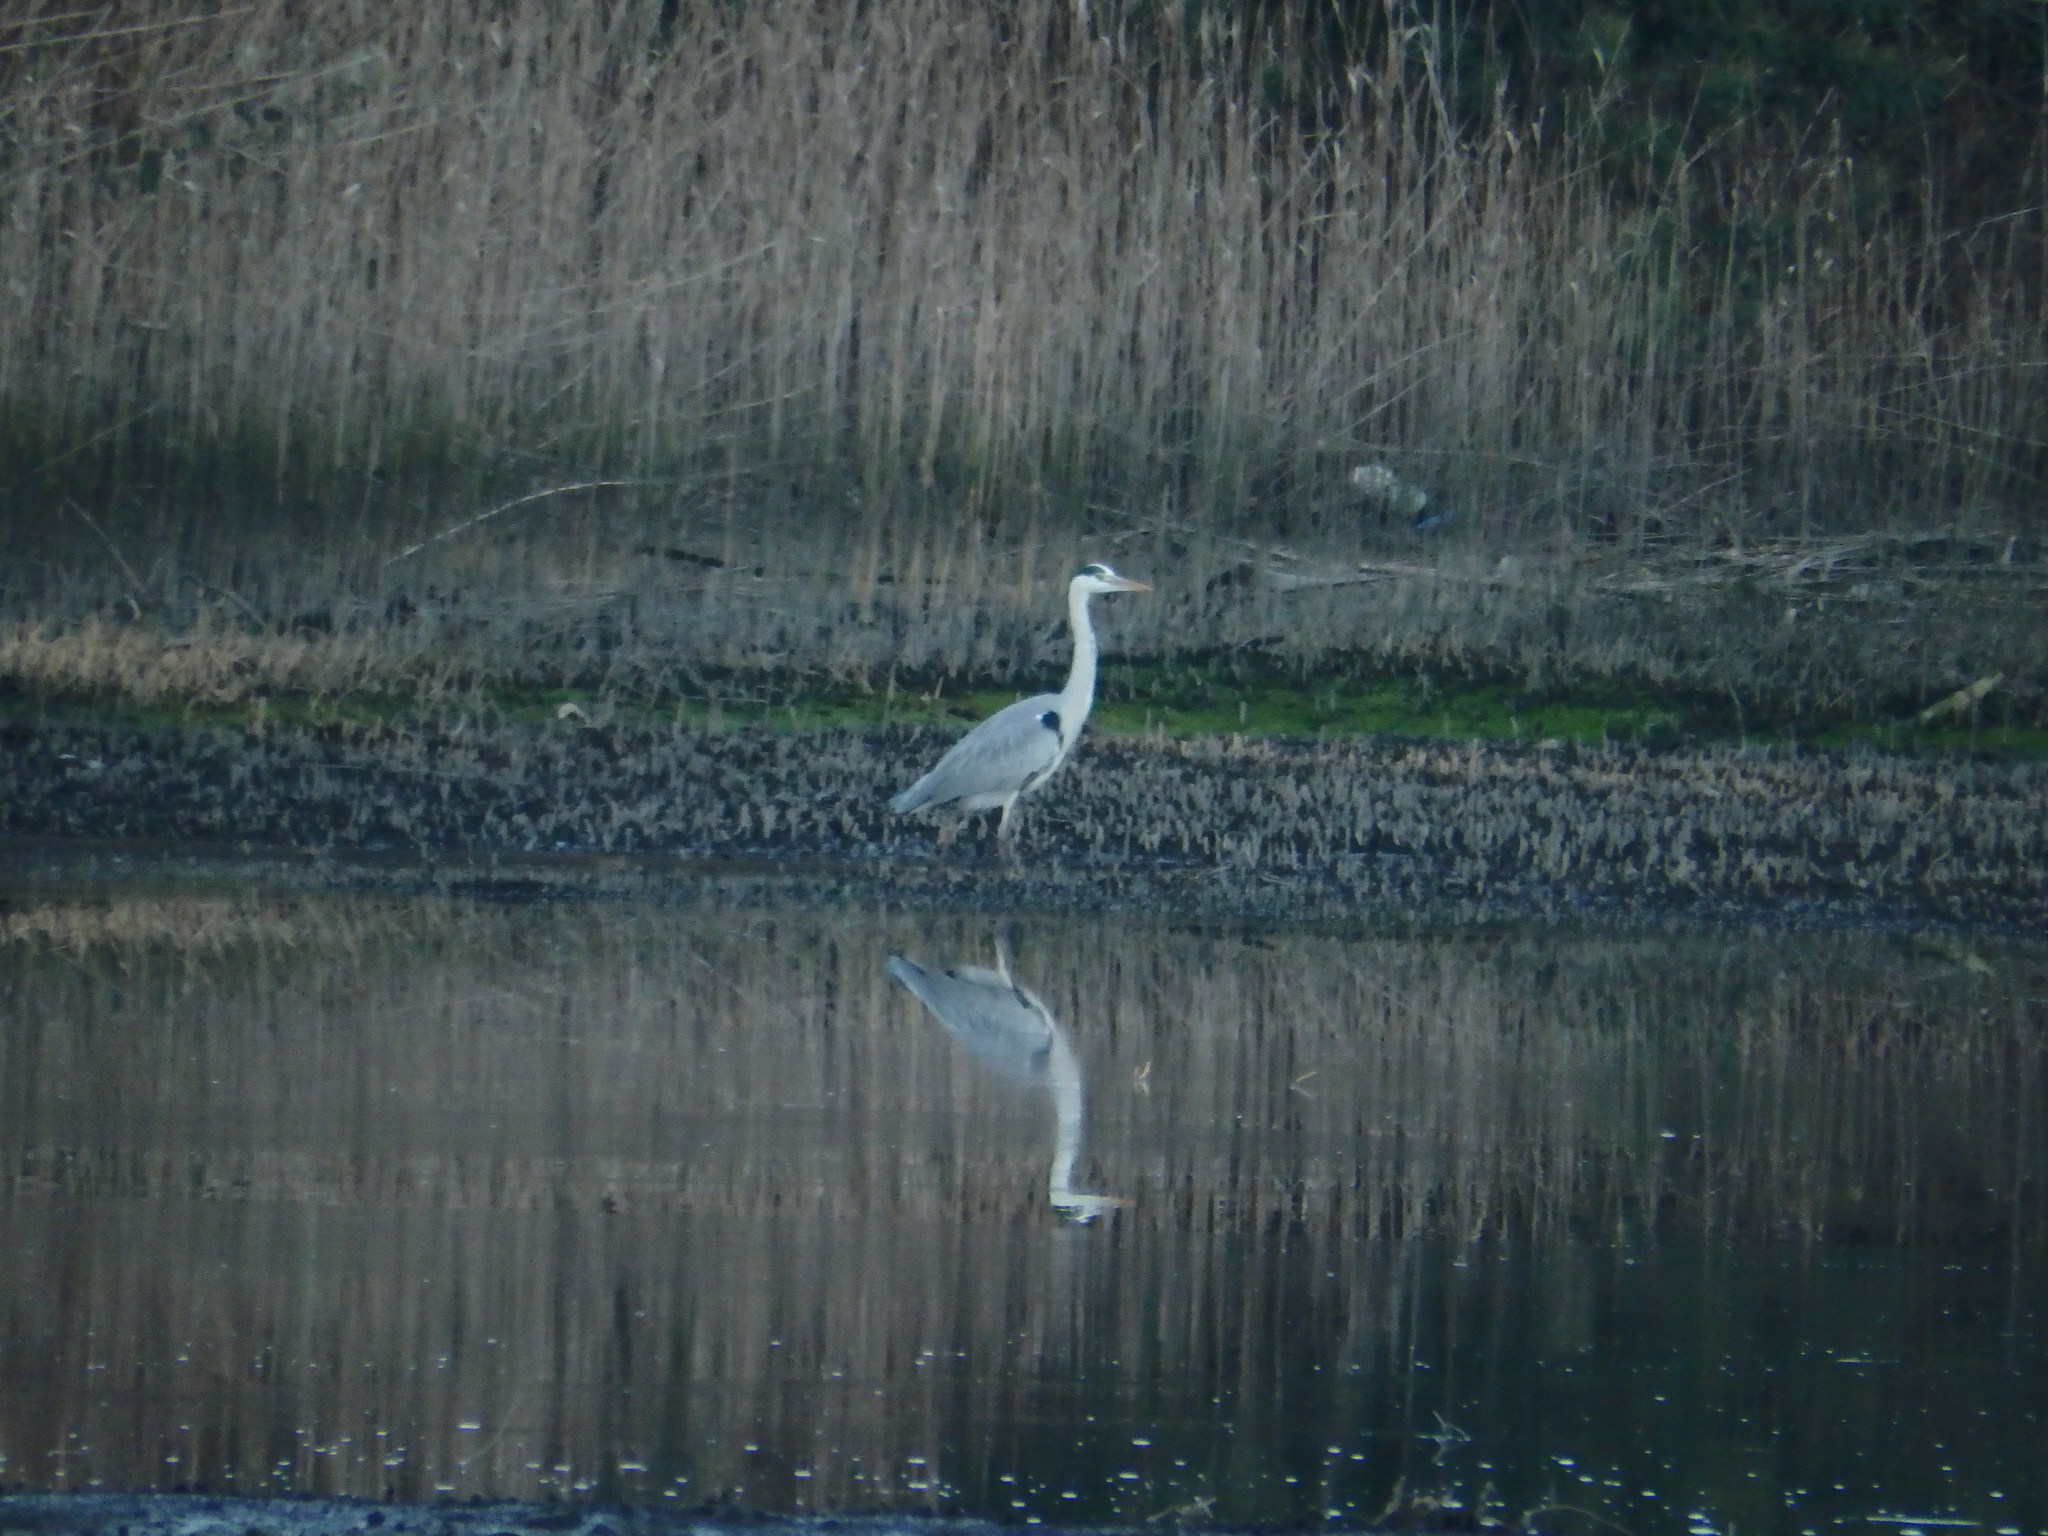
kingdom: Animalia
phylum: Chordata
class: Aves
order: Pelecaniformes
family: Ardeidae
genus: Ardea
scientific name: Ardea cinerea
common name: Grey heron
